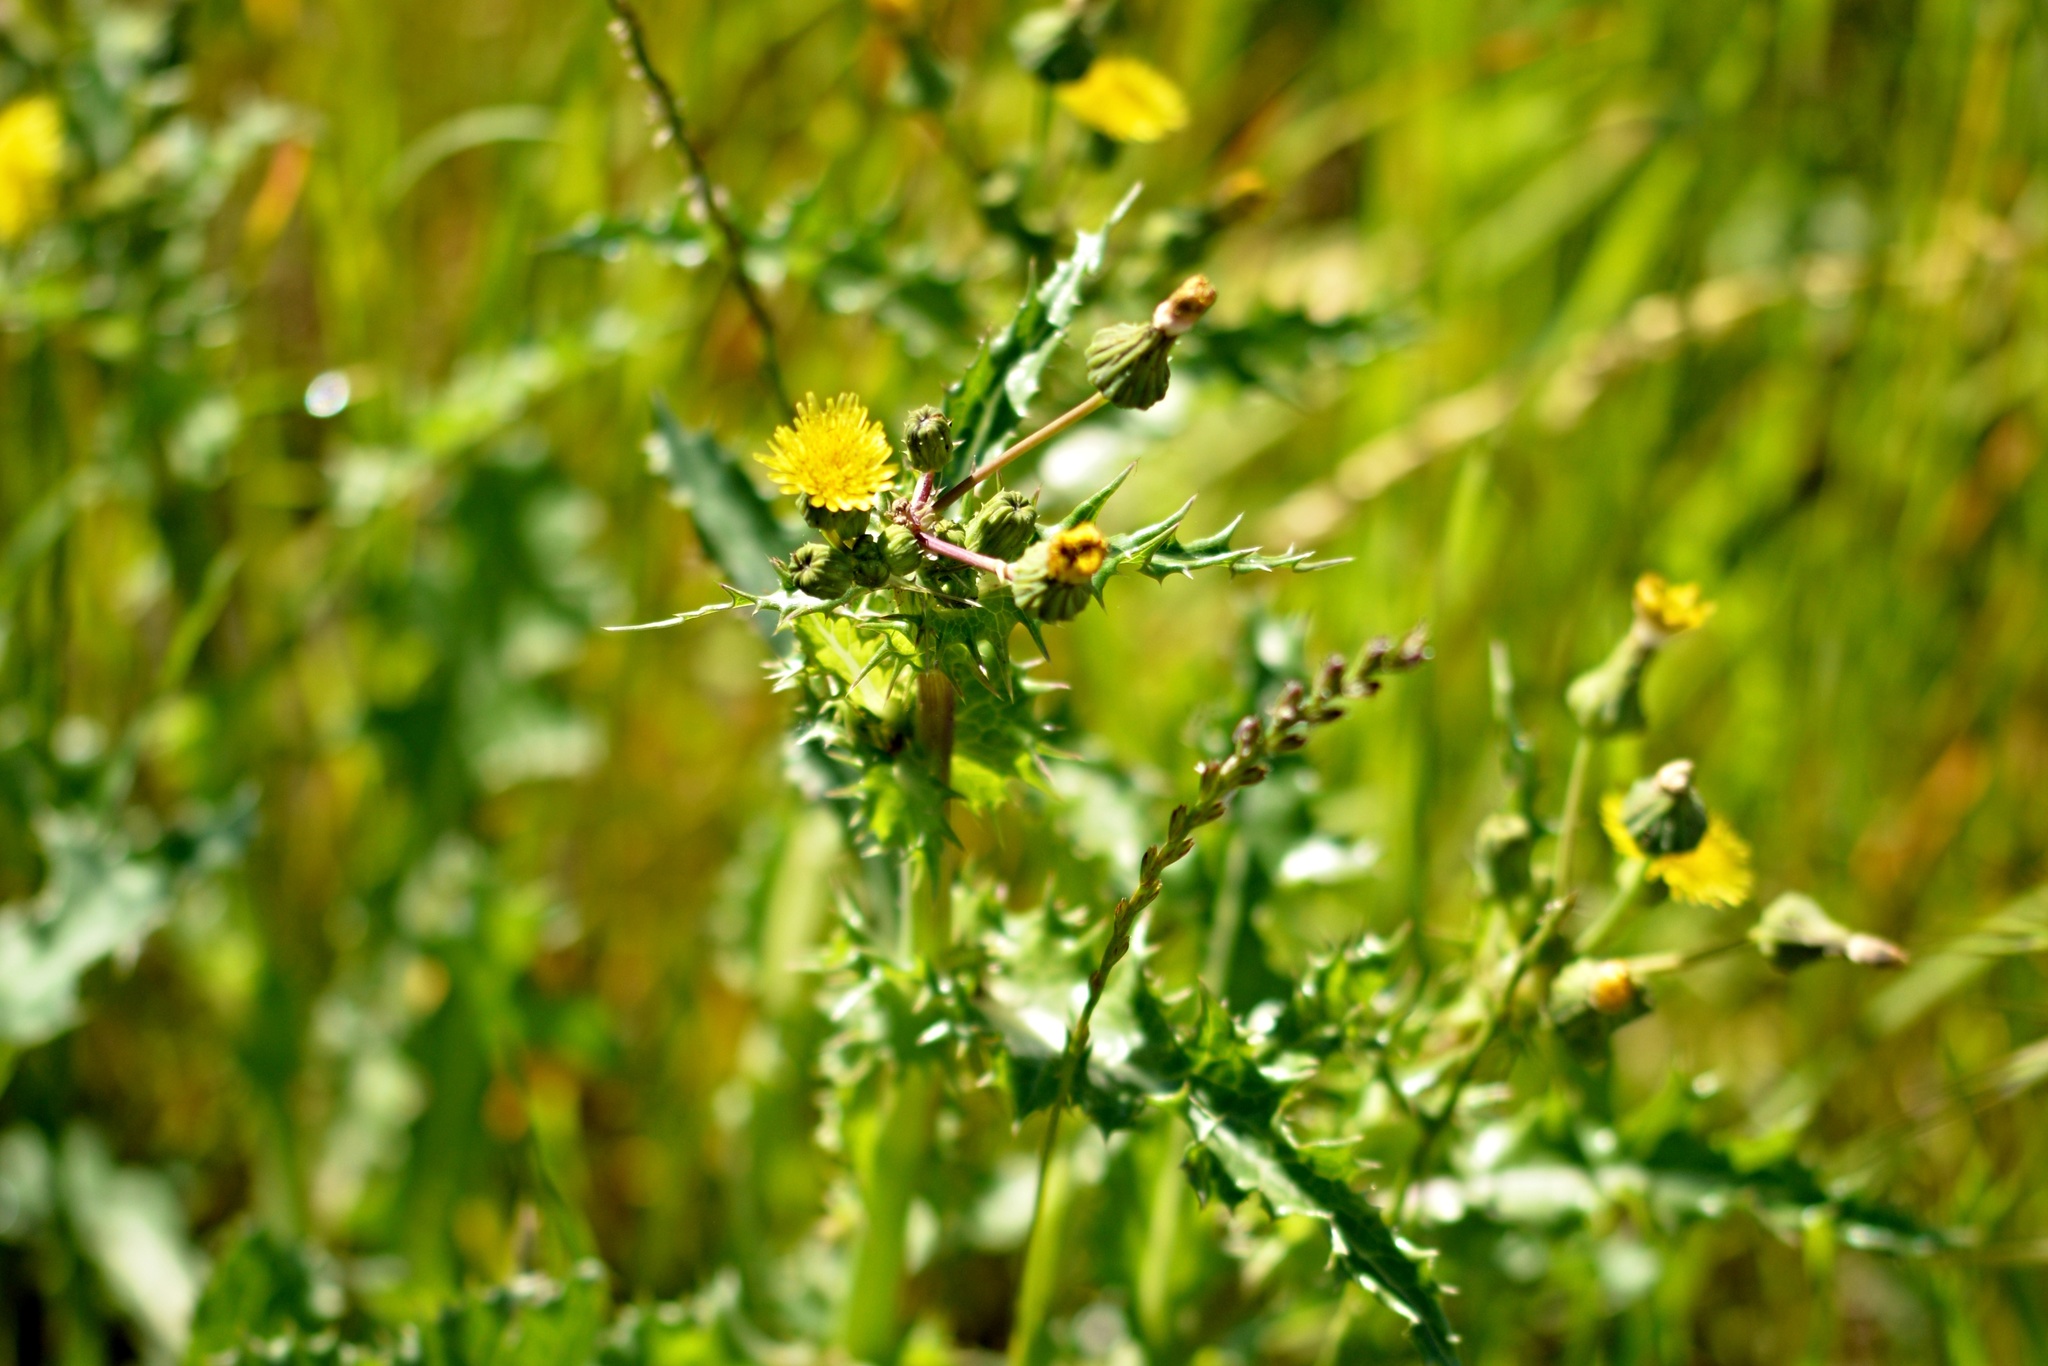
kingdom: Plantae
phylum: Tracheophyta
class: Magnoliopsida
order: Asterales
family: Asteraceae
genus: Sonchus
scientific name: Sonchus asper
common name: Prickly sow-thistle
